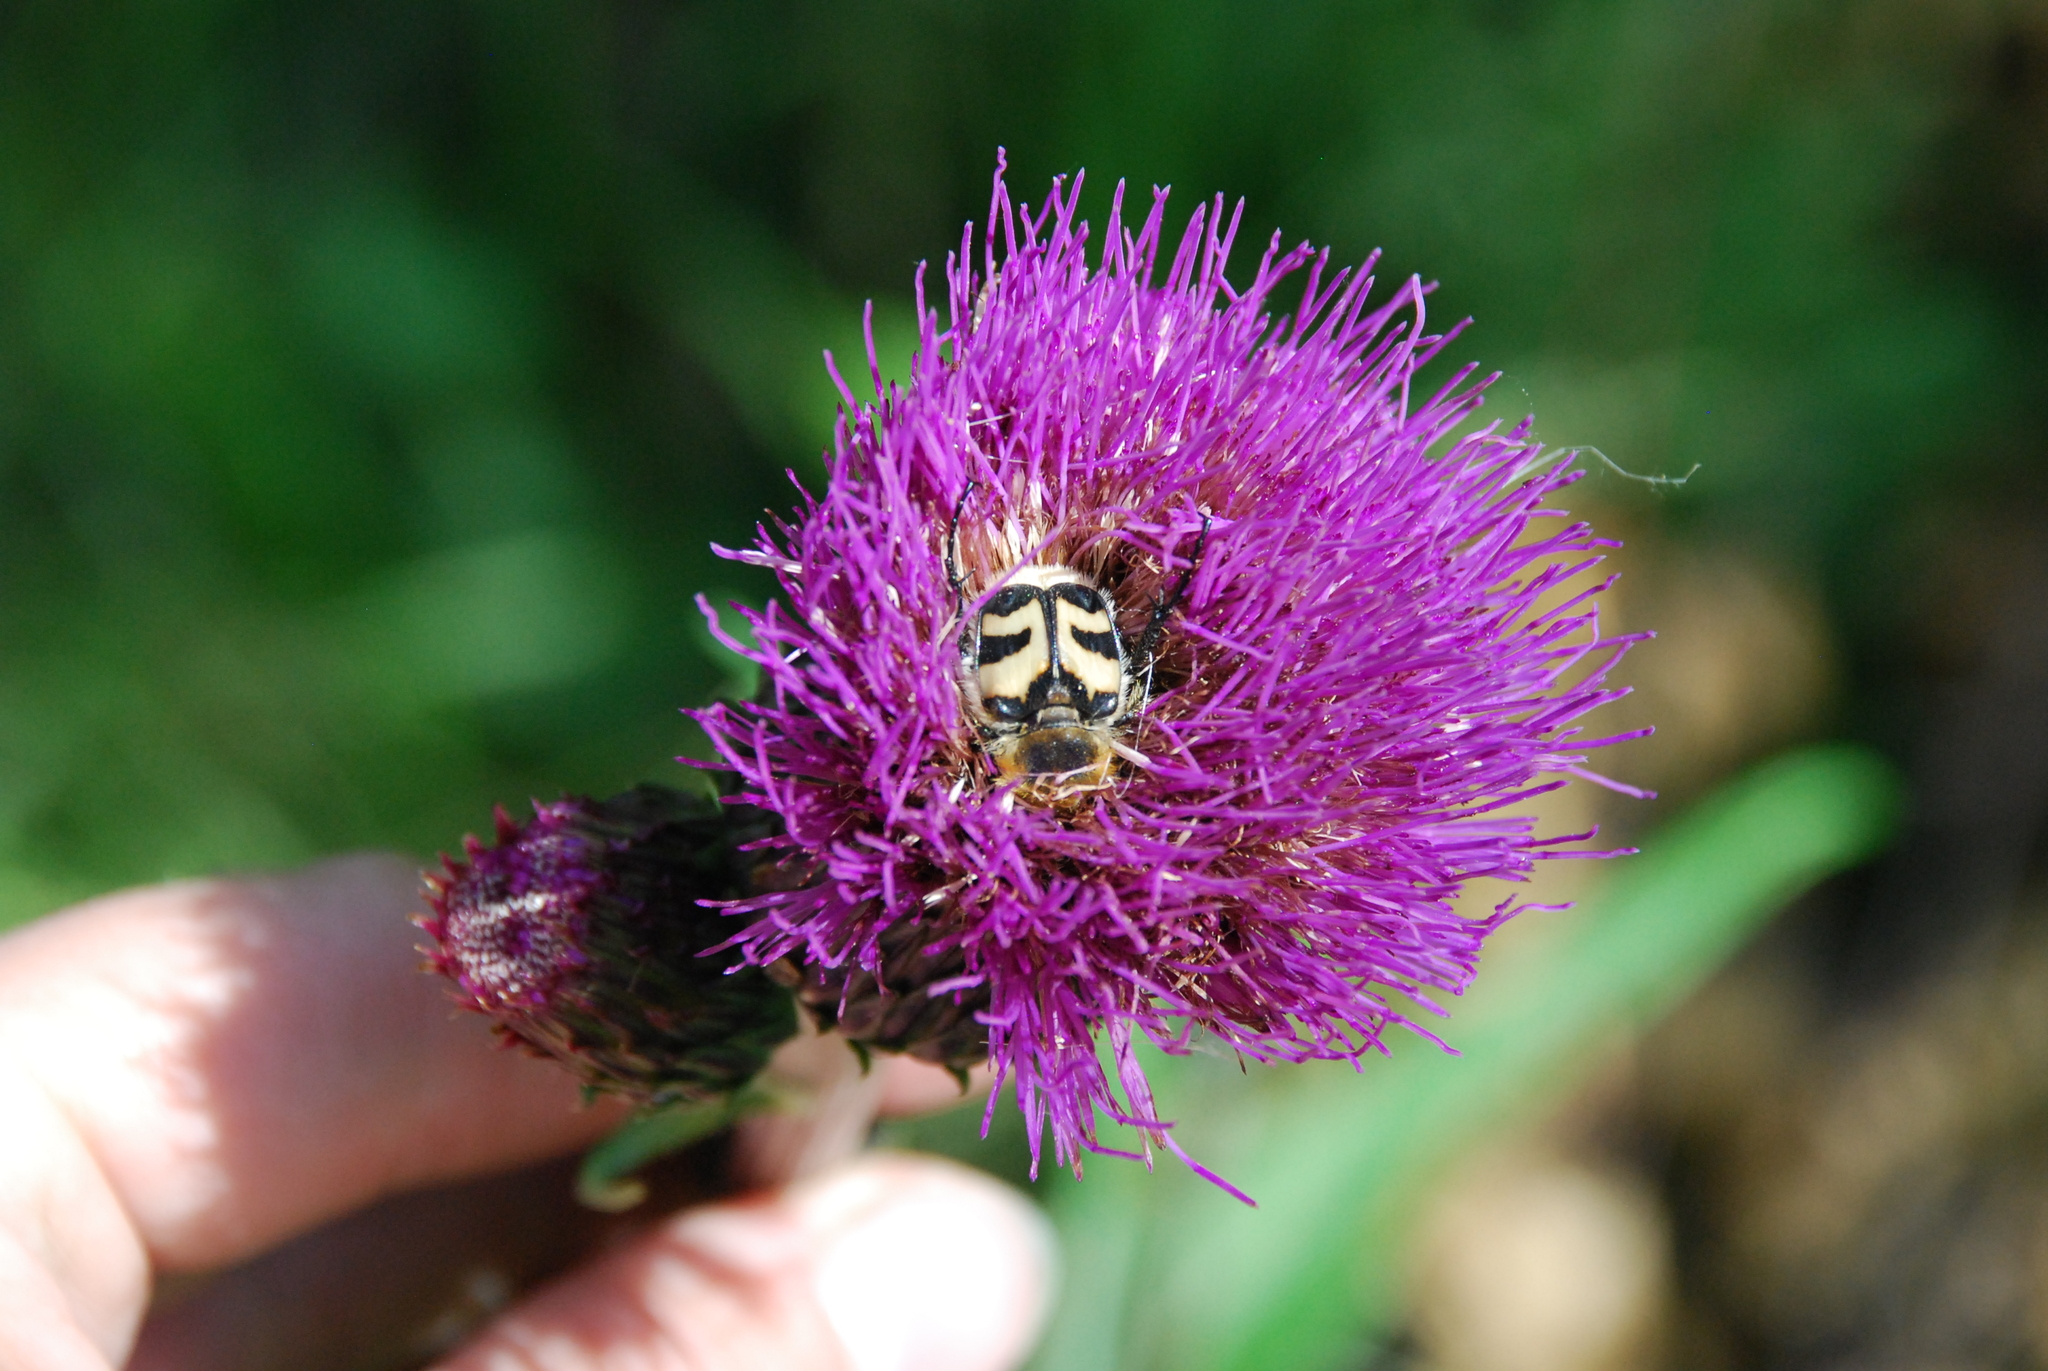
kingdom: Animalia
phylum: Arthropoda
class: Insecta
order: Coleoptera
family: Scarabaeidae
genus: Trichius
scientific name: Trichius fasciatus
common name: Bee beetle
